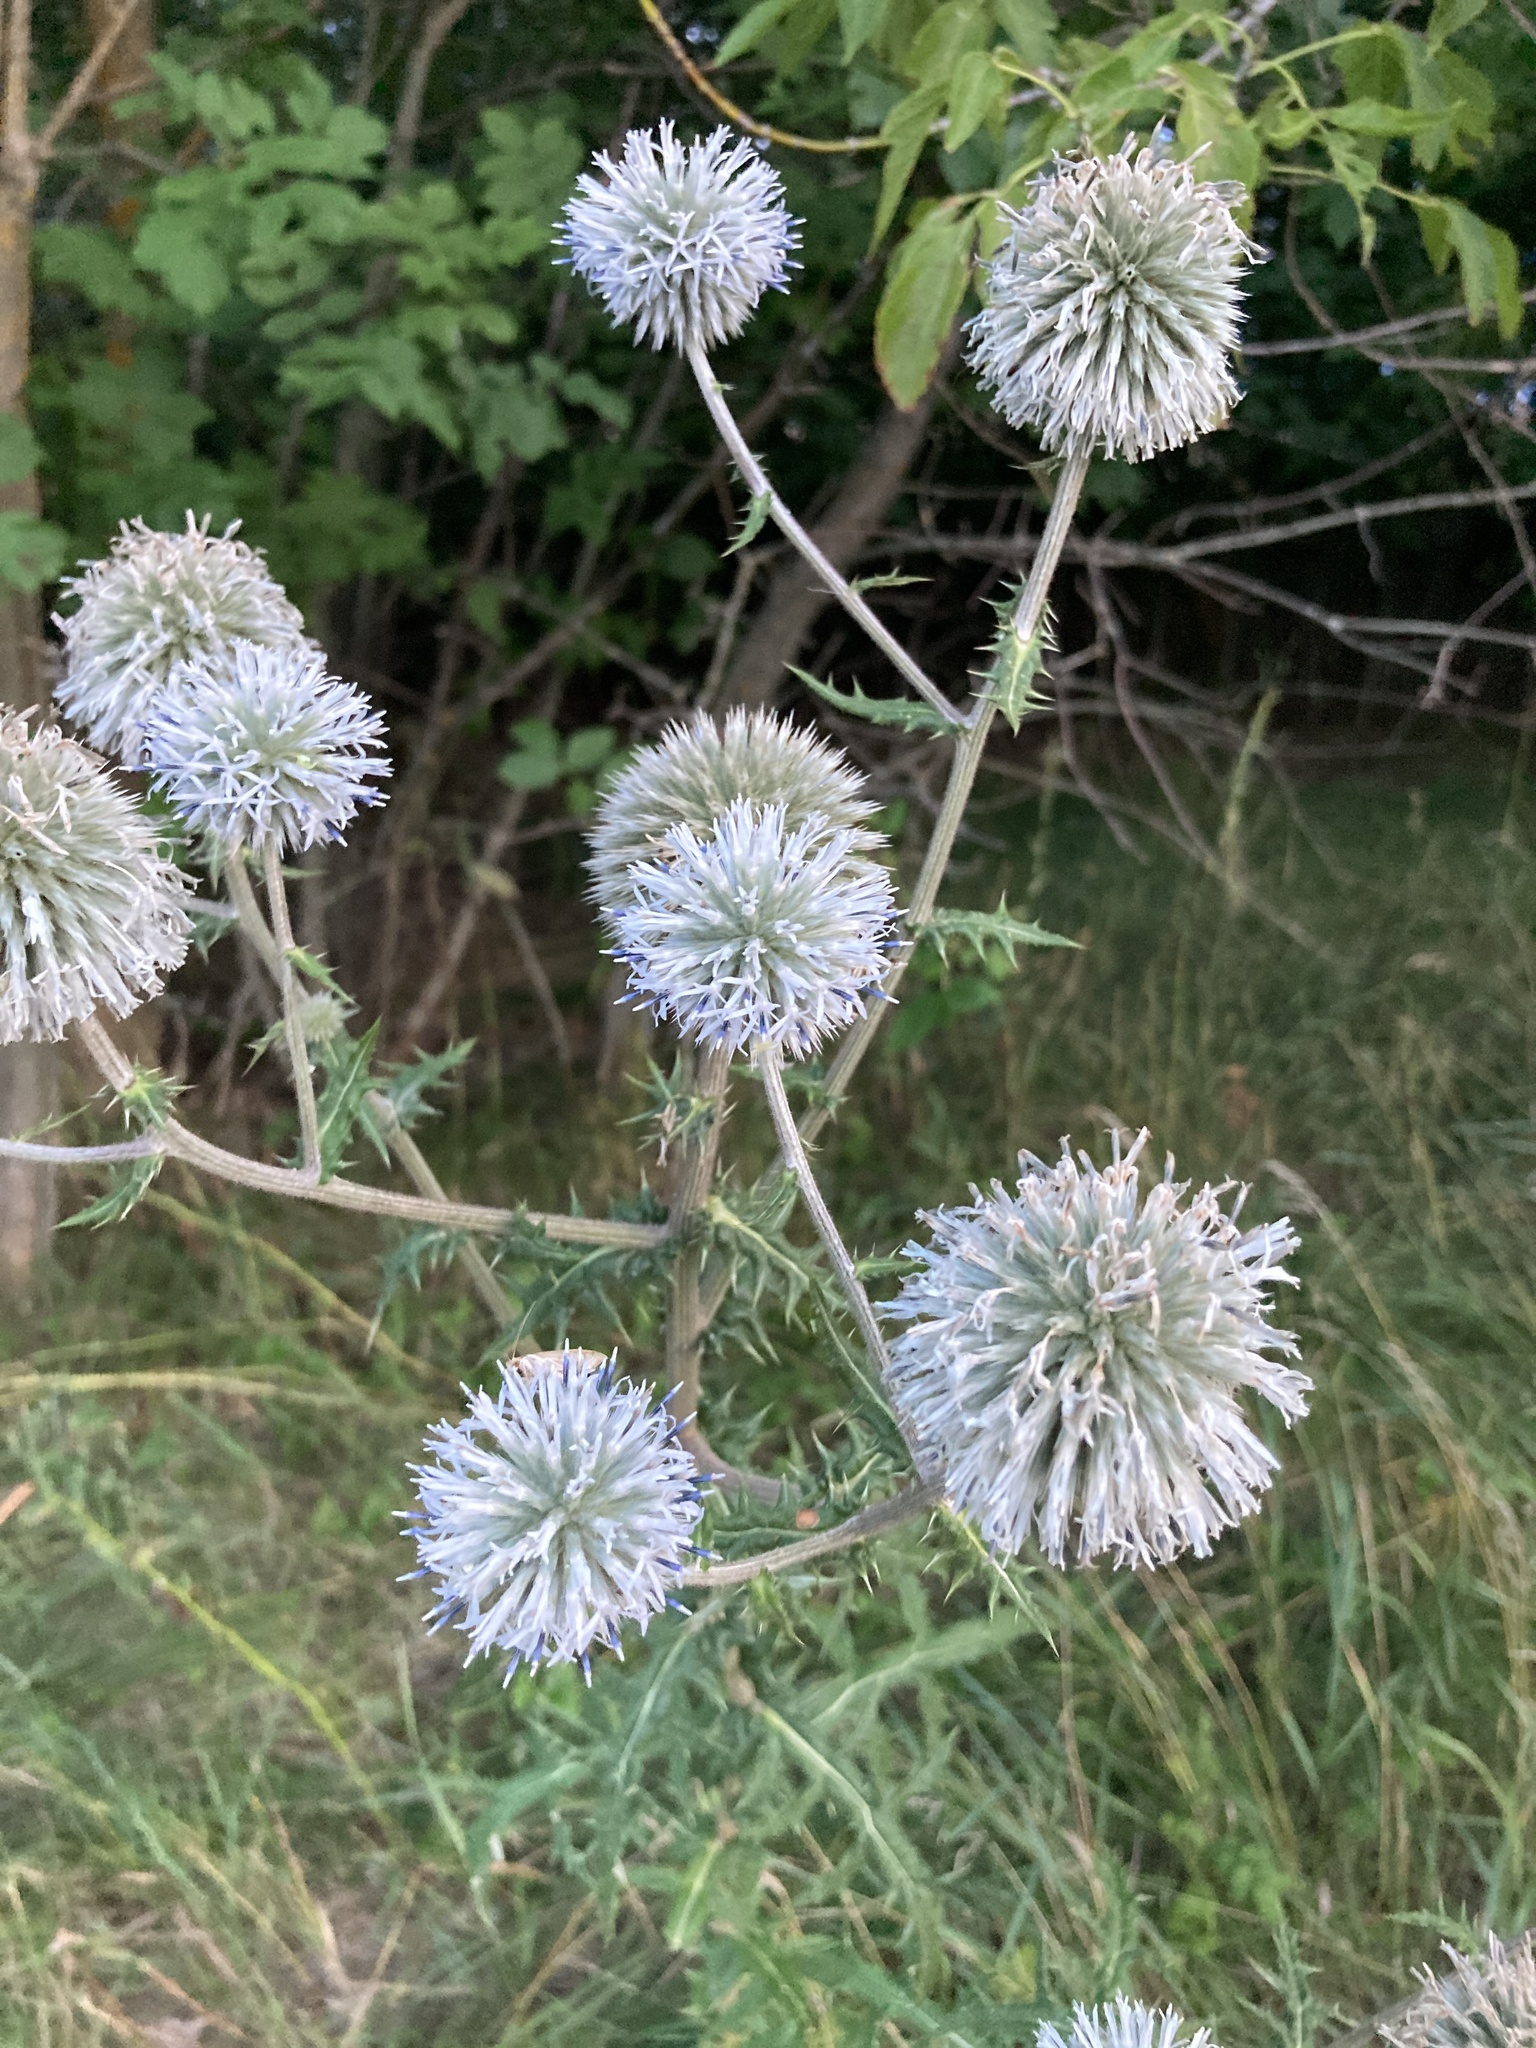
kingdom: Plantae
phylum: Tracheophyta
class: Magnoliopsida
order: Asterales
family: Asteraceae
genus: Echinops
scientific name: Echinops sphaerocephalus
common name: Glandular globe-thistle
